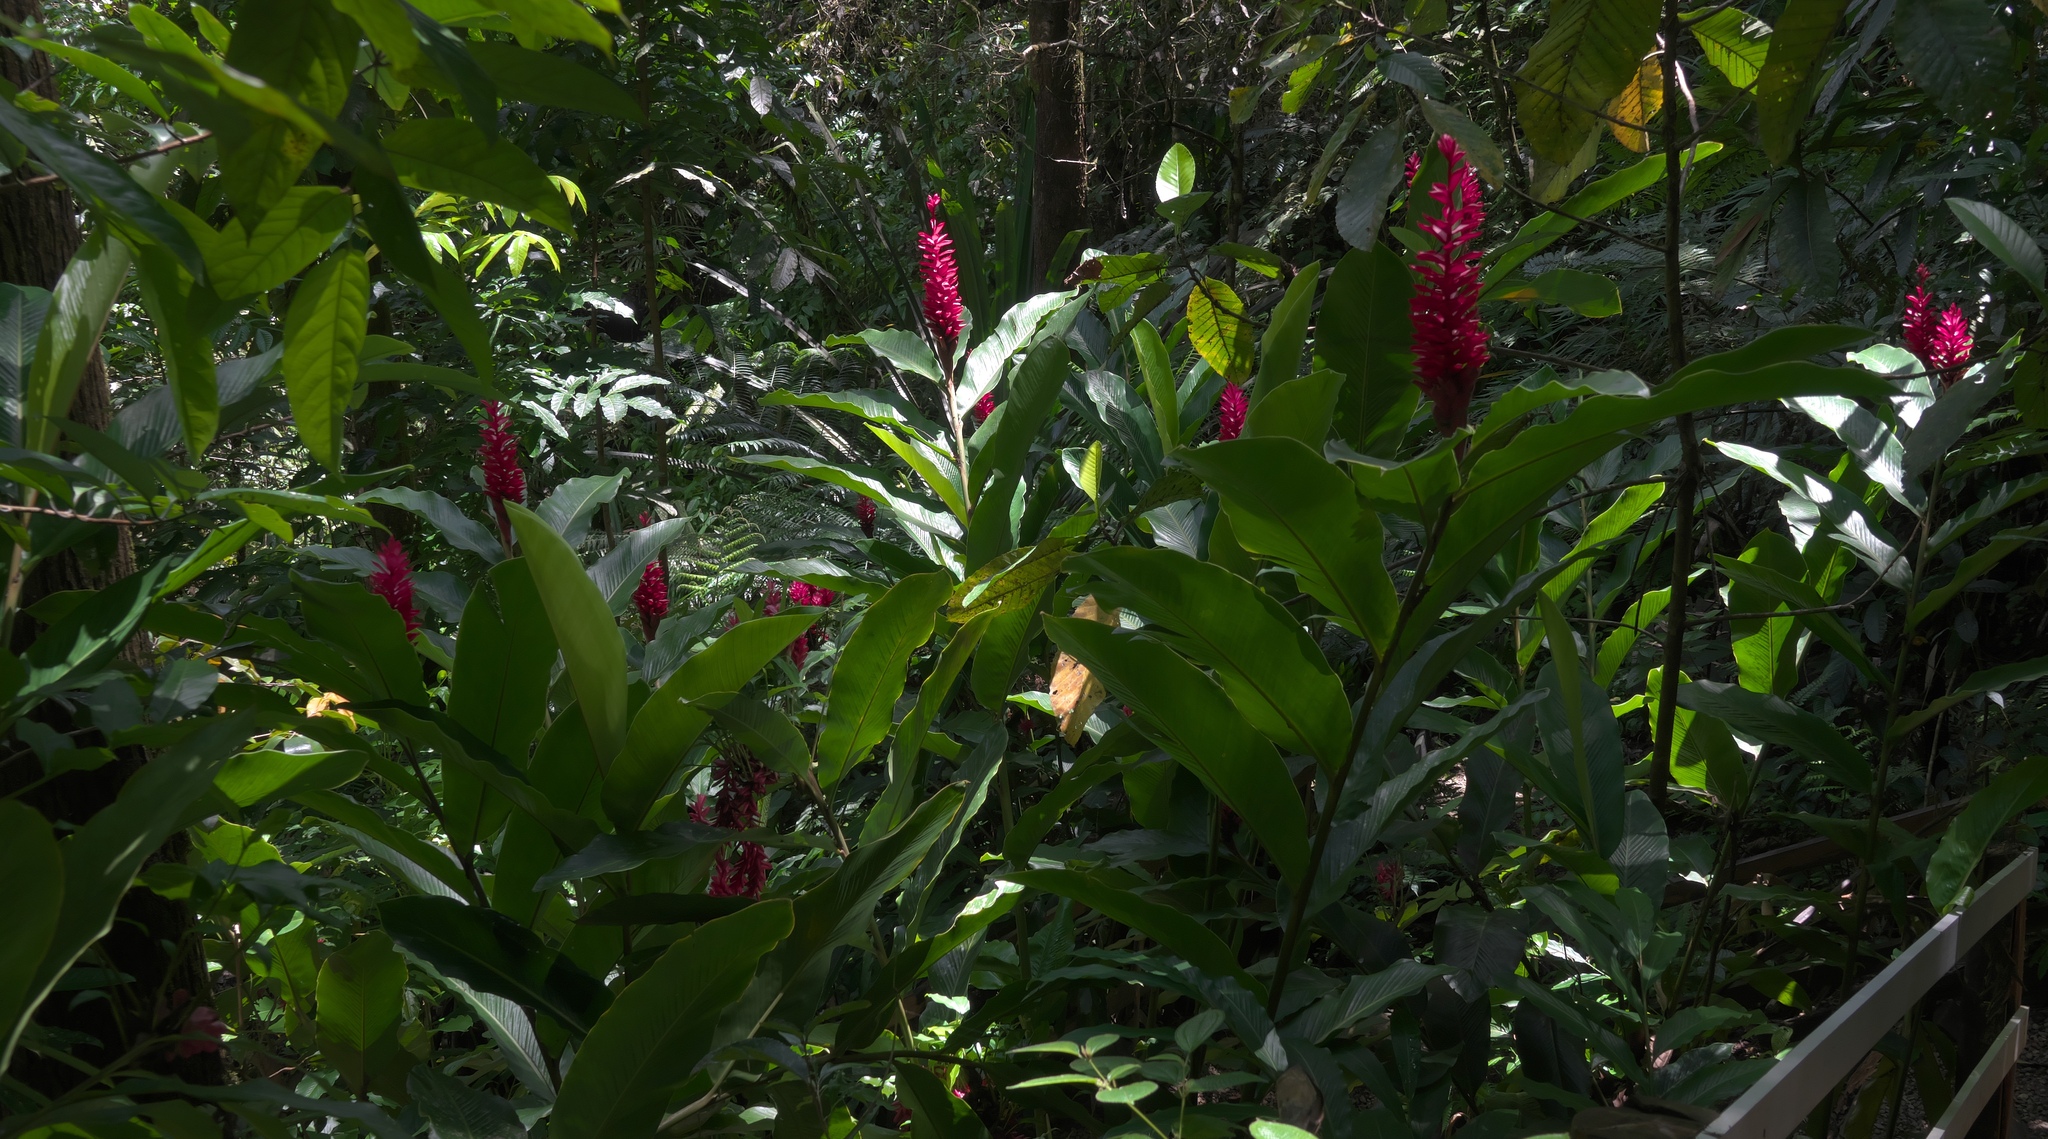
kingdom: Plantae
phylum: Tracheophyta
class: Liliopsida
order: Zingiberales
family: Zingiberaceae
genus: Alpinia
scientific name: Alpinia purpurata
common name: Red ginger
